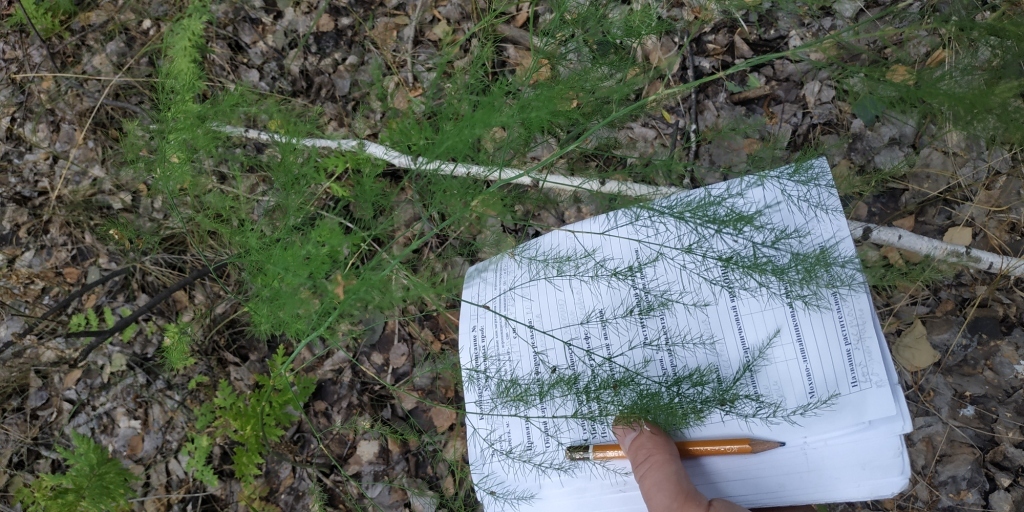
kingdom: Plantae
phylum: Tracheophyta
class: Liliopsida
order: Asparagales
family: Asparagaceae
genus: Asparagus
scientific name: Asparagus officinalis
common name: Garden asparagus
